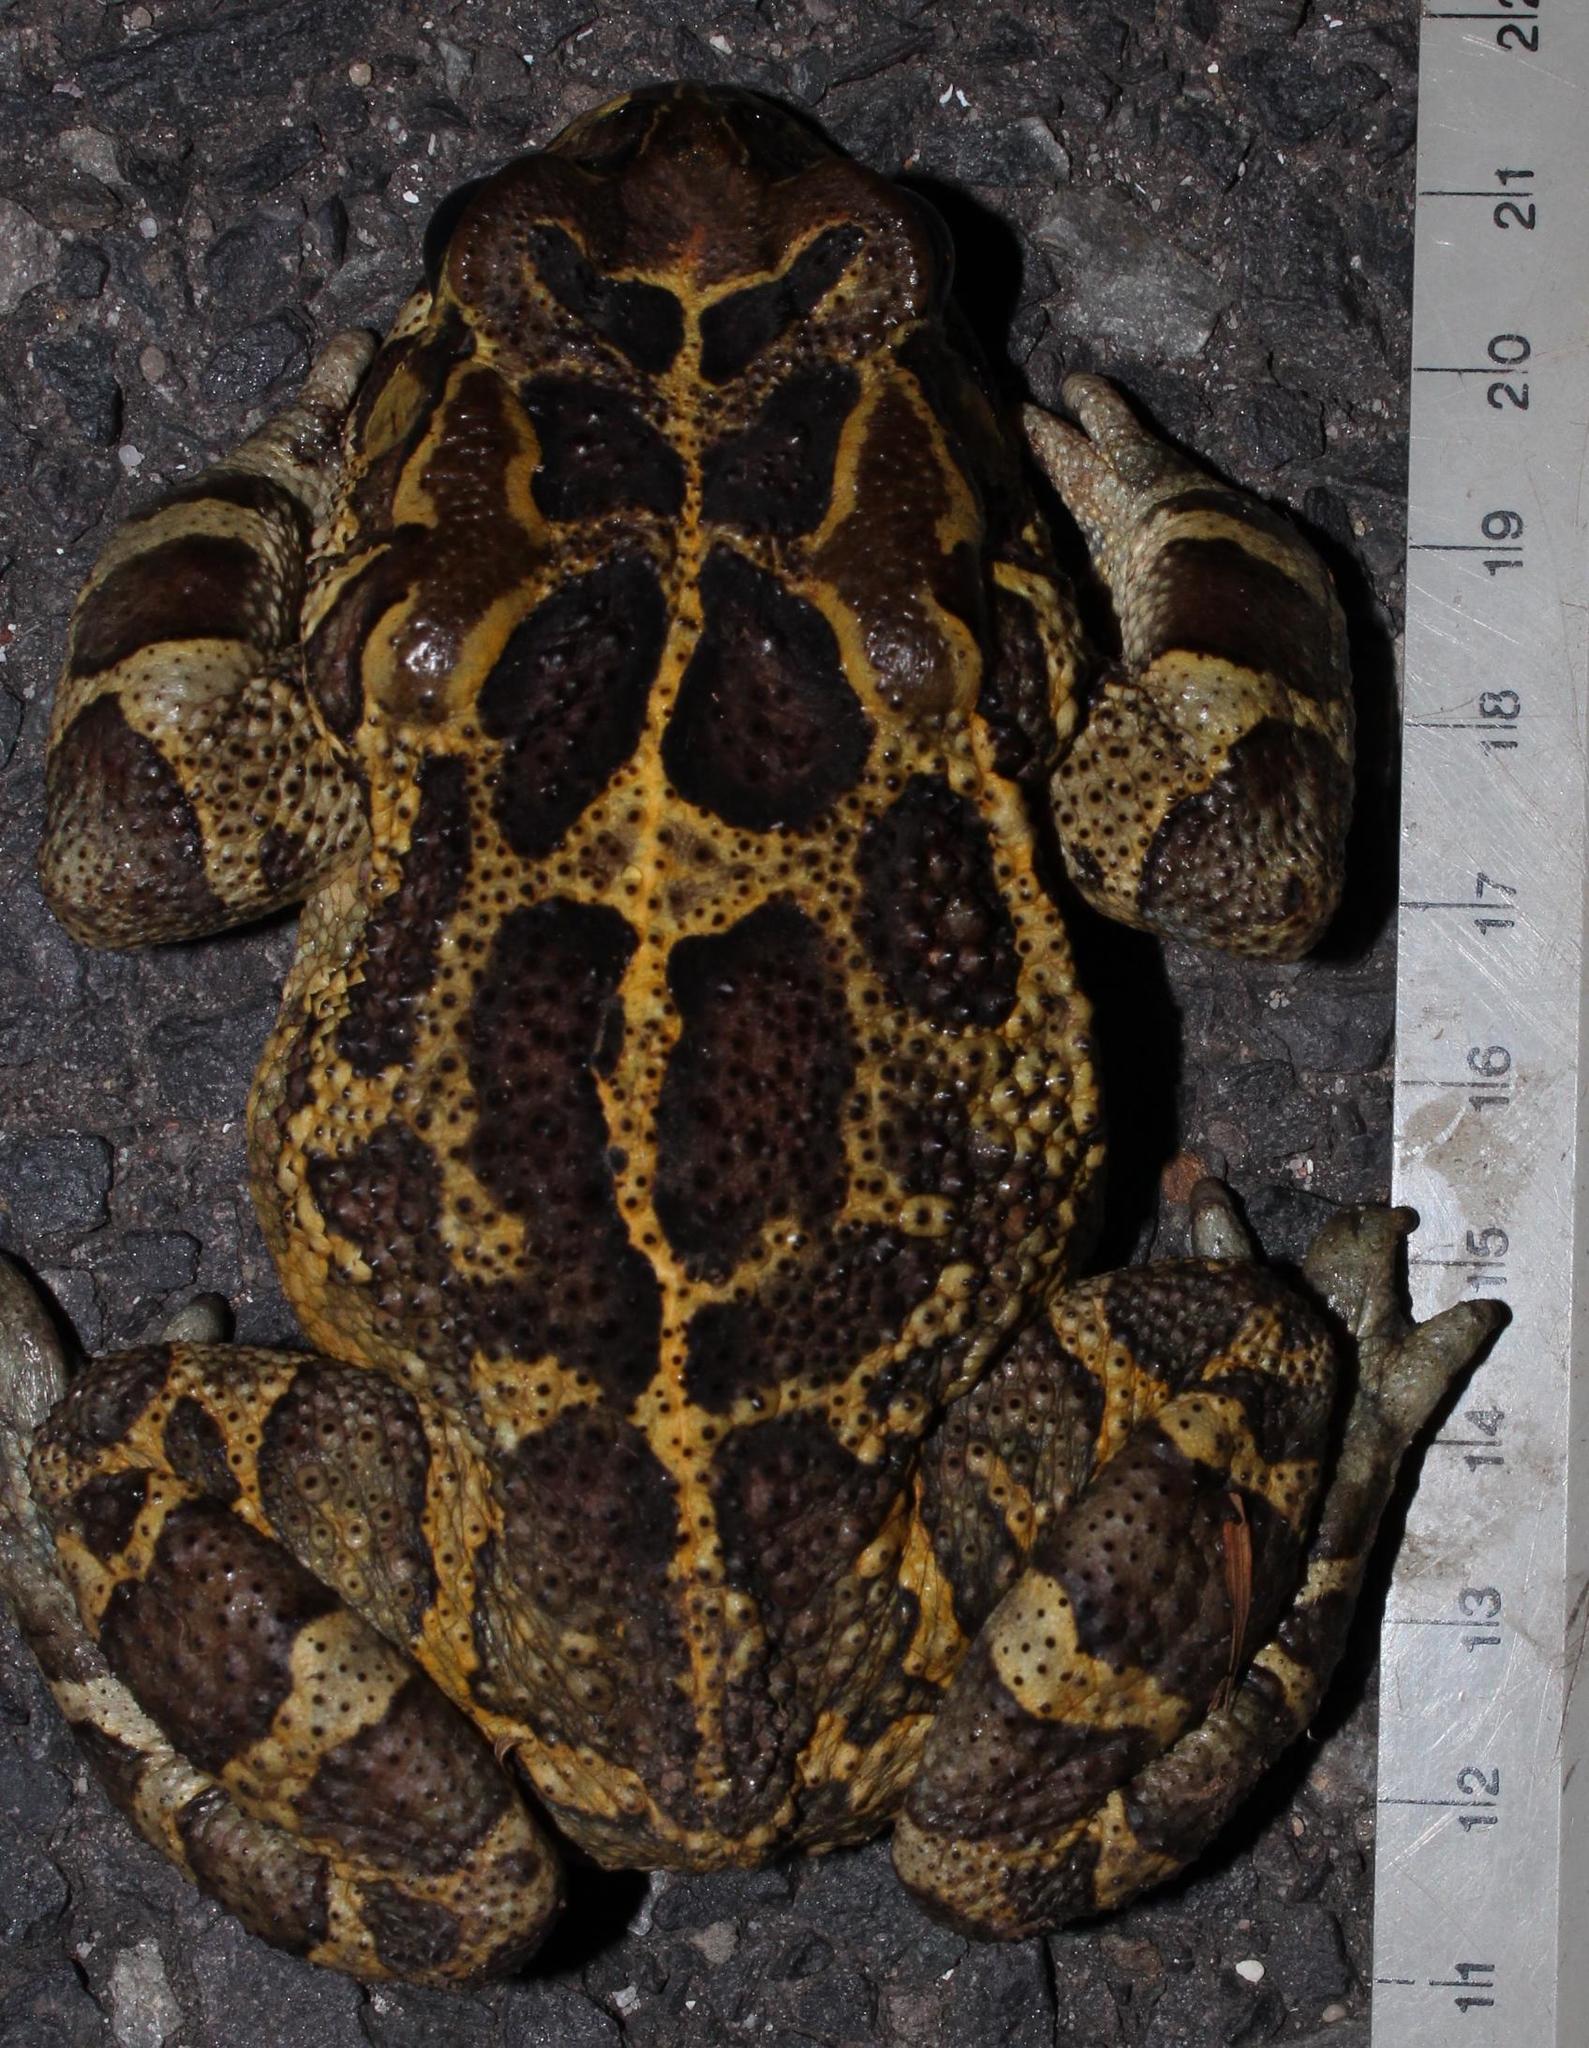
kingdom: Animalia
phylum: Chordata
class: Amphibia
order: Anura
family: Bufonidae
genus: Sclerophrys
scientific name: Sclerophrys pantherina
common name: Panther toad
